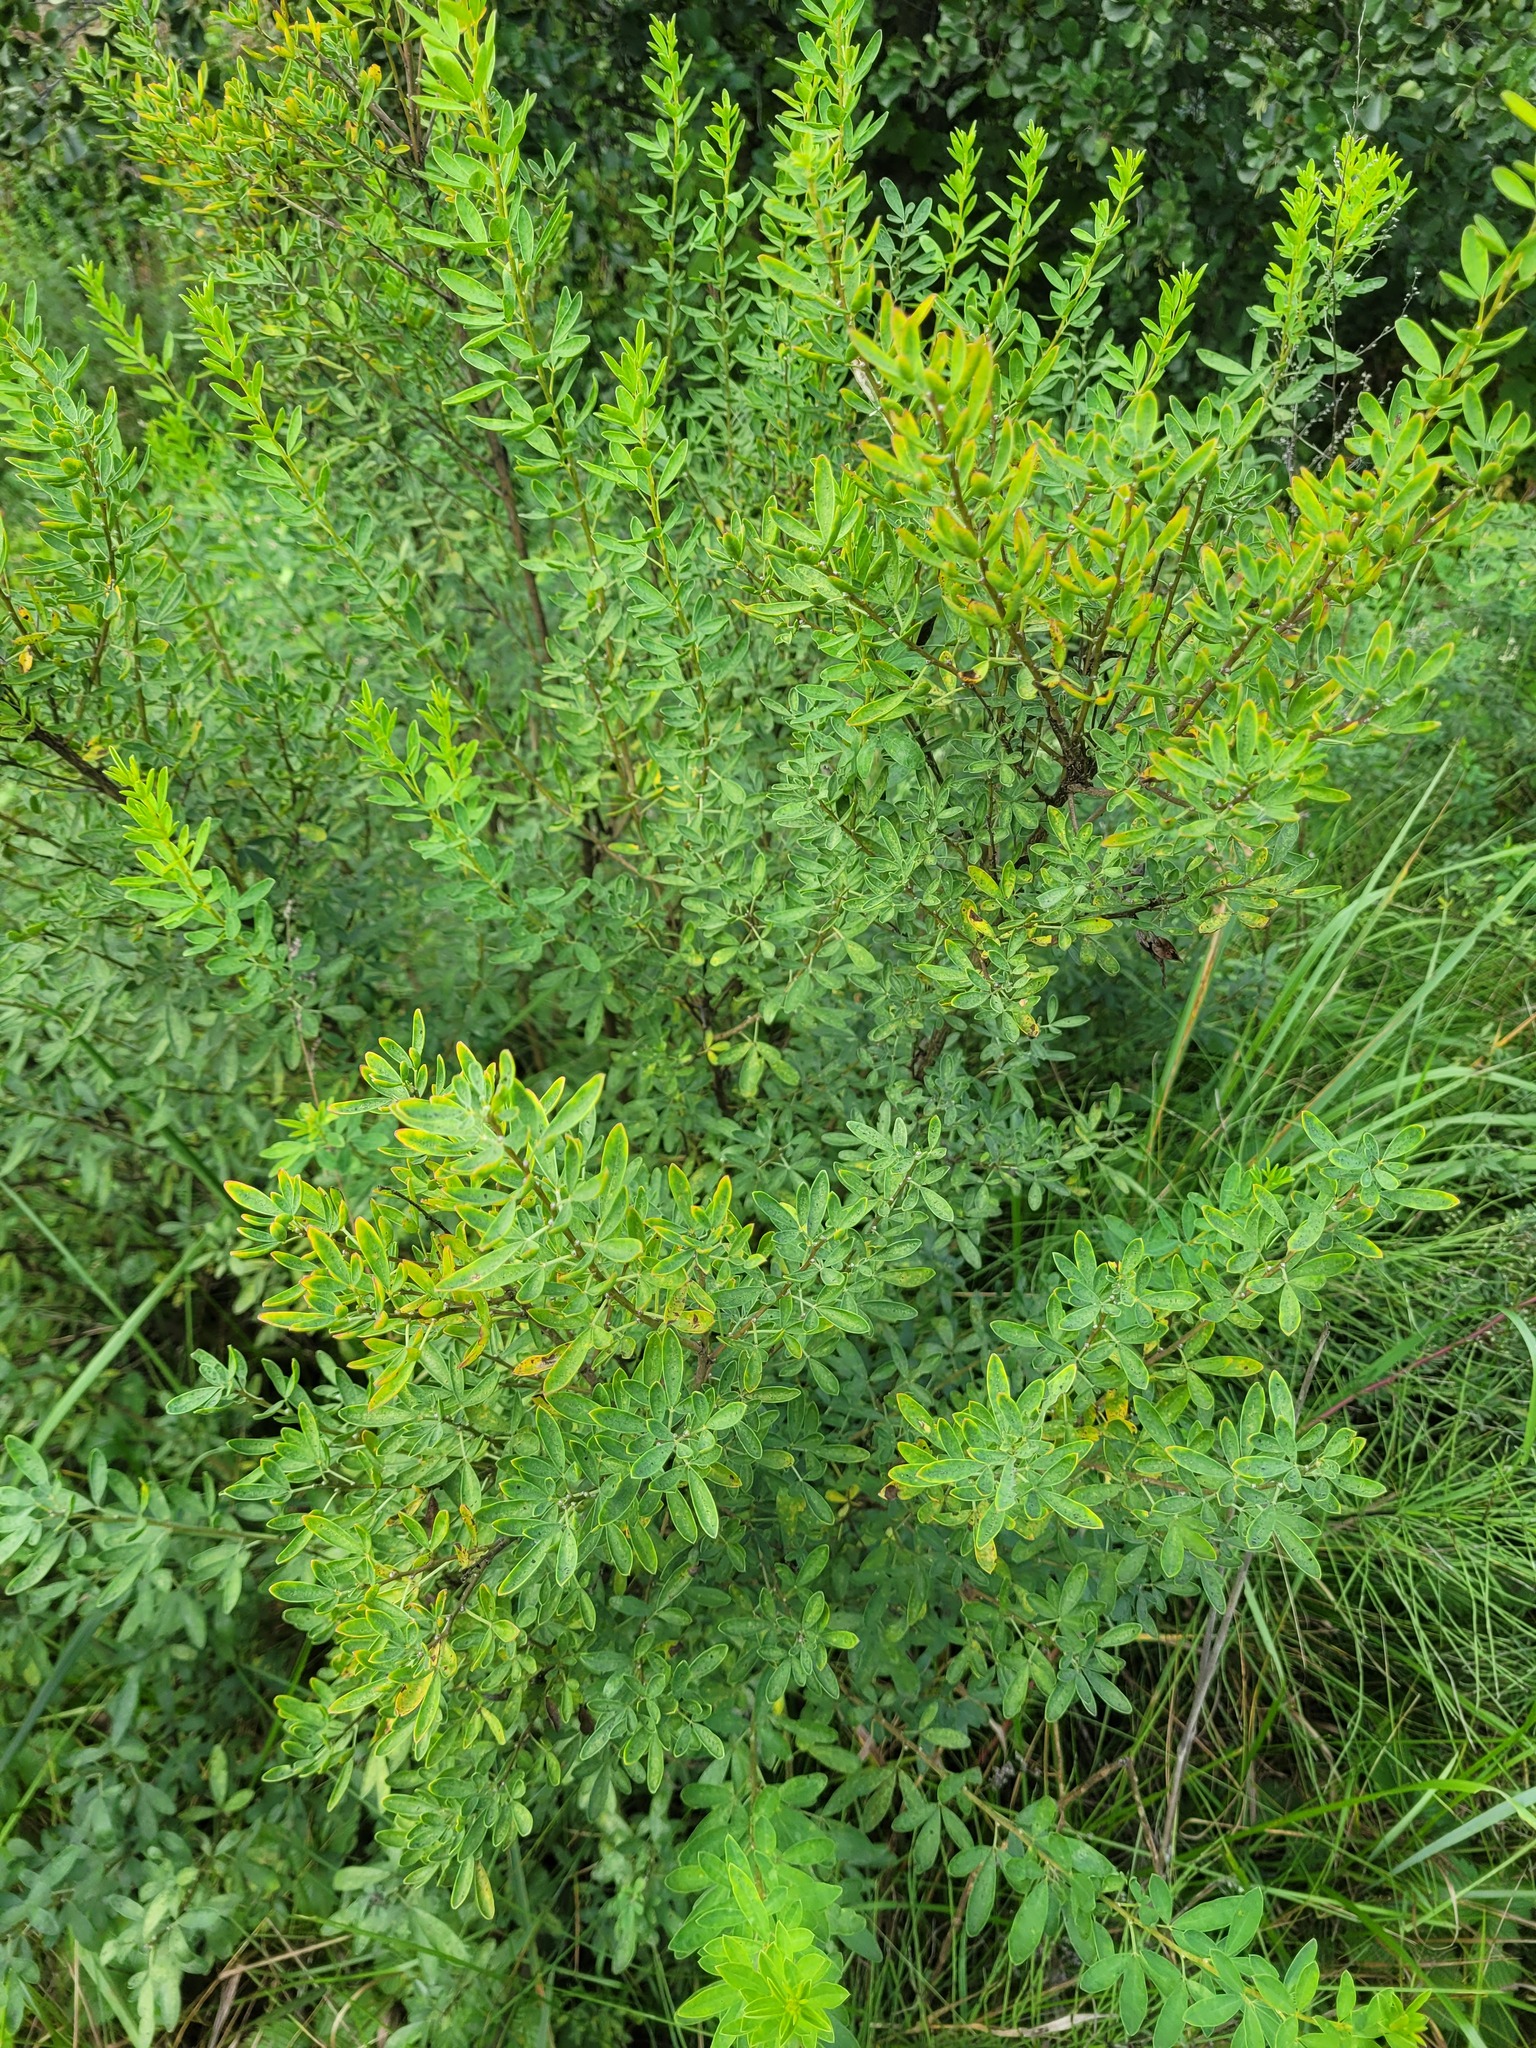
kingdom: Plantae
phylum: Tracheophyta
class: Magnoliopsida
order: Fabales
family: Fabaceae
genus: Chamaecytisus
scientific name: Chamaecytisus ruthenicus
